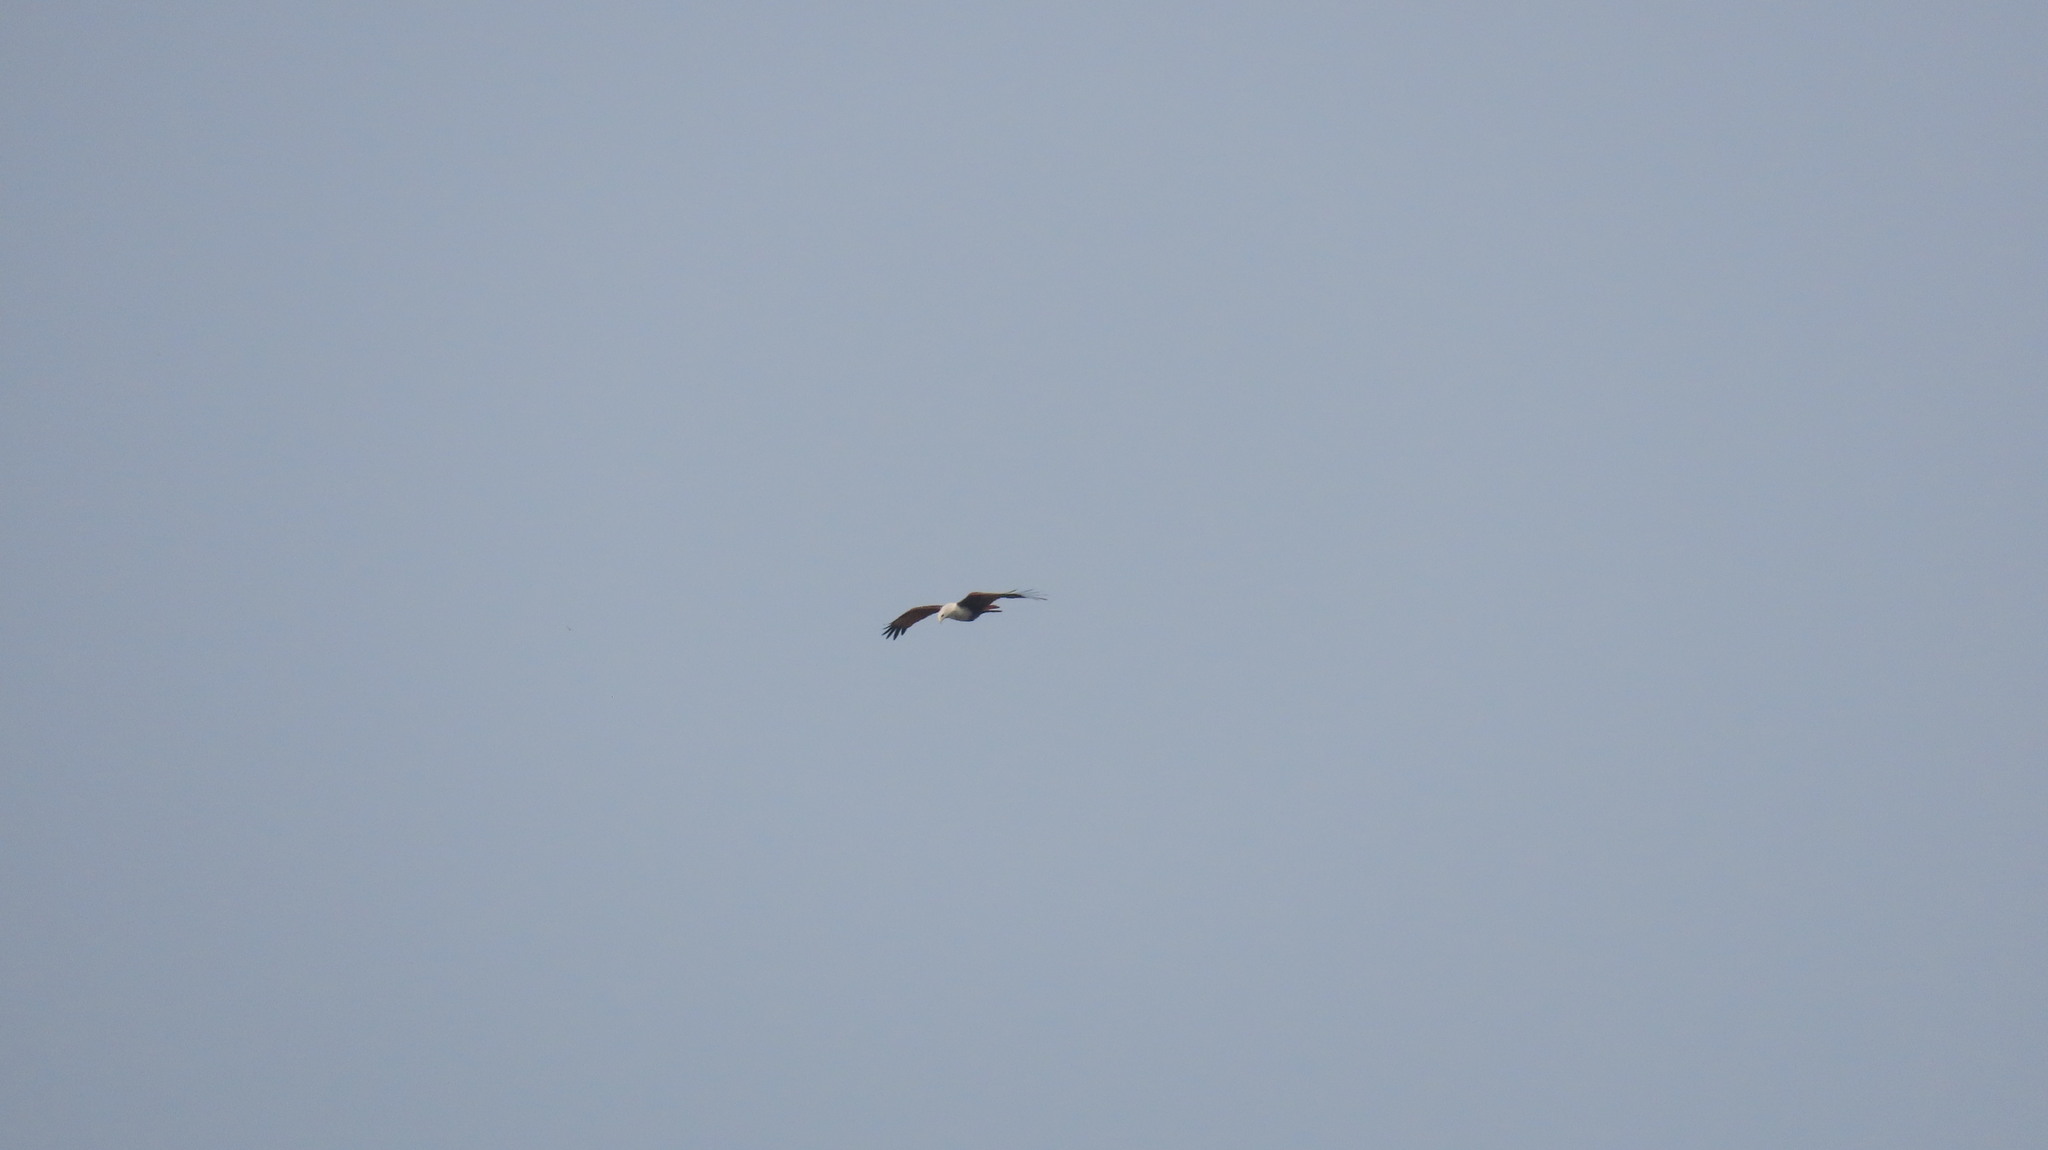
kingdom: Animalia
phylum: Chordata
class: Aves
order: Accipitriformes
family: Accipitridae
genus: Haliastur
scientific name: Haliastur indus
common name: Brahminy kite
